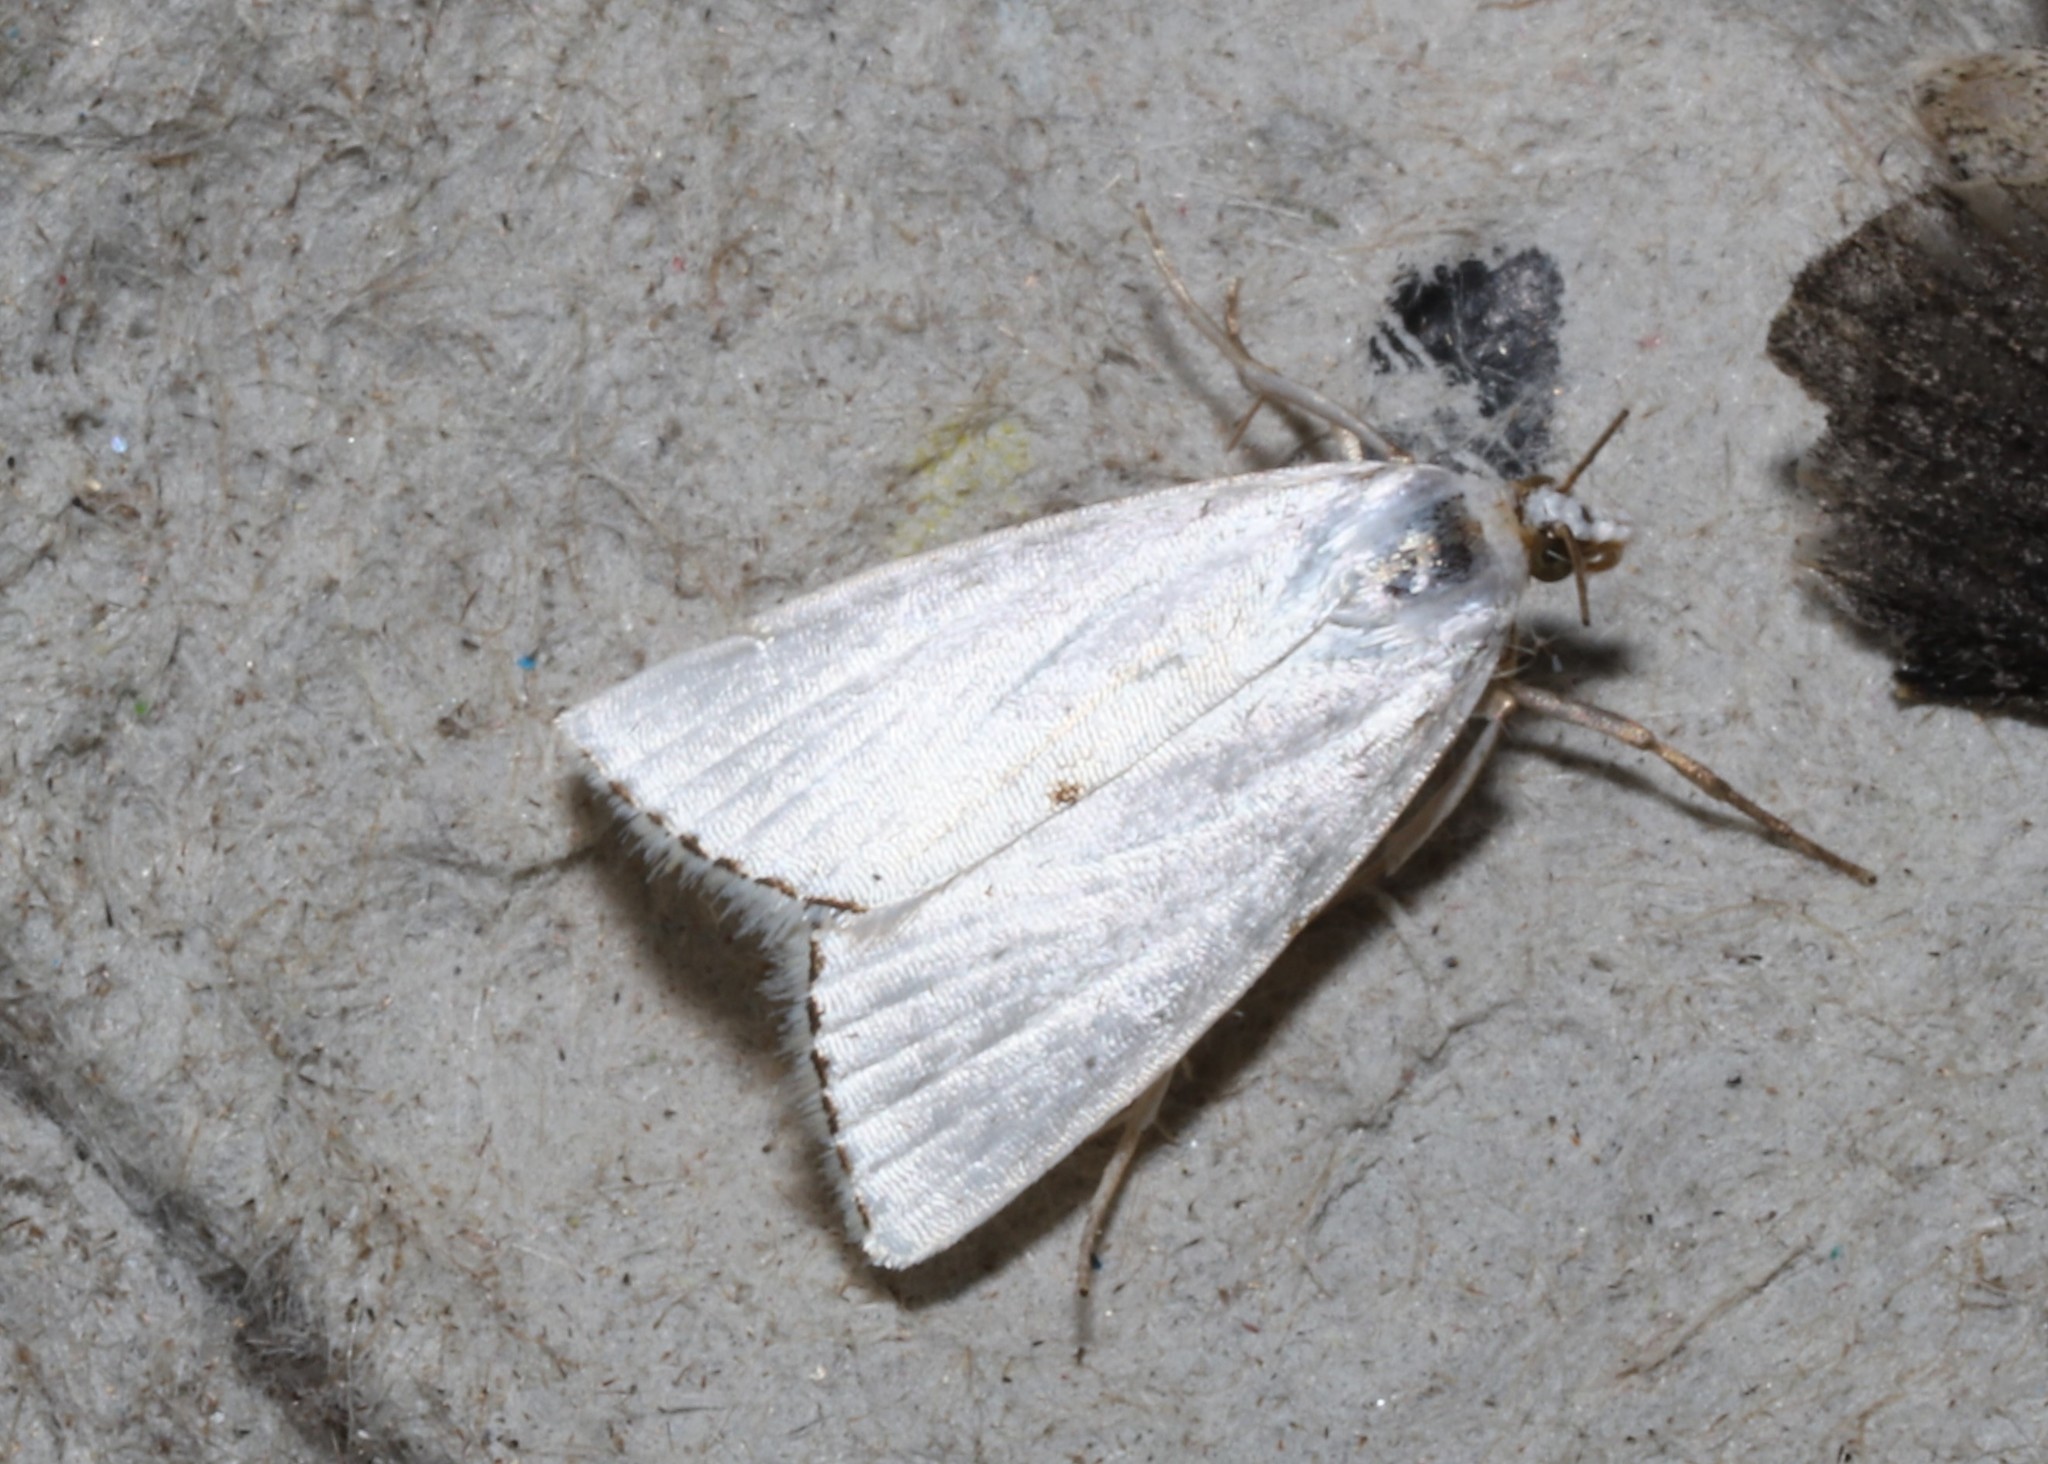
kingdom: Animalia
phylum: Arthropoda
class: Insecta
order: Lepidoptera
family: Crambidae
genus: Argyria
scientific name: Argyria nivalis
